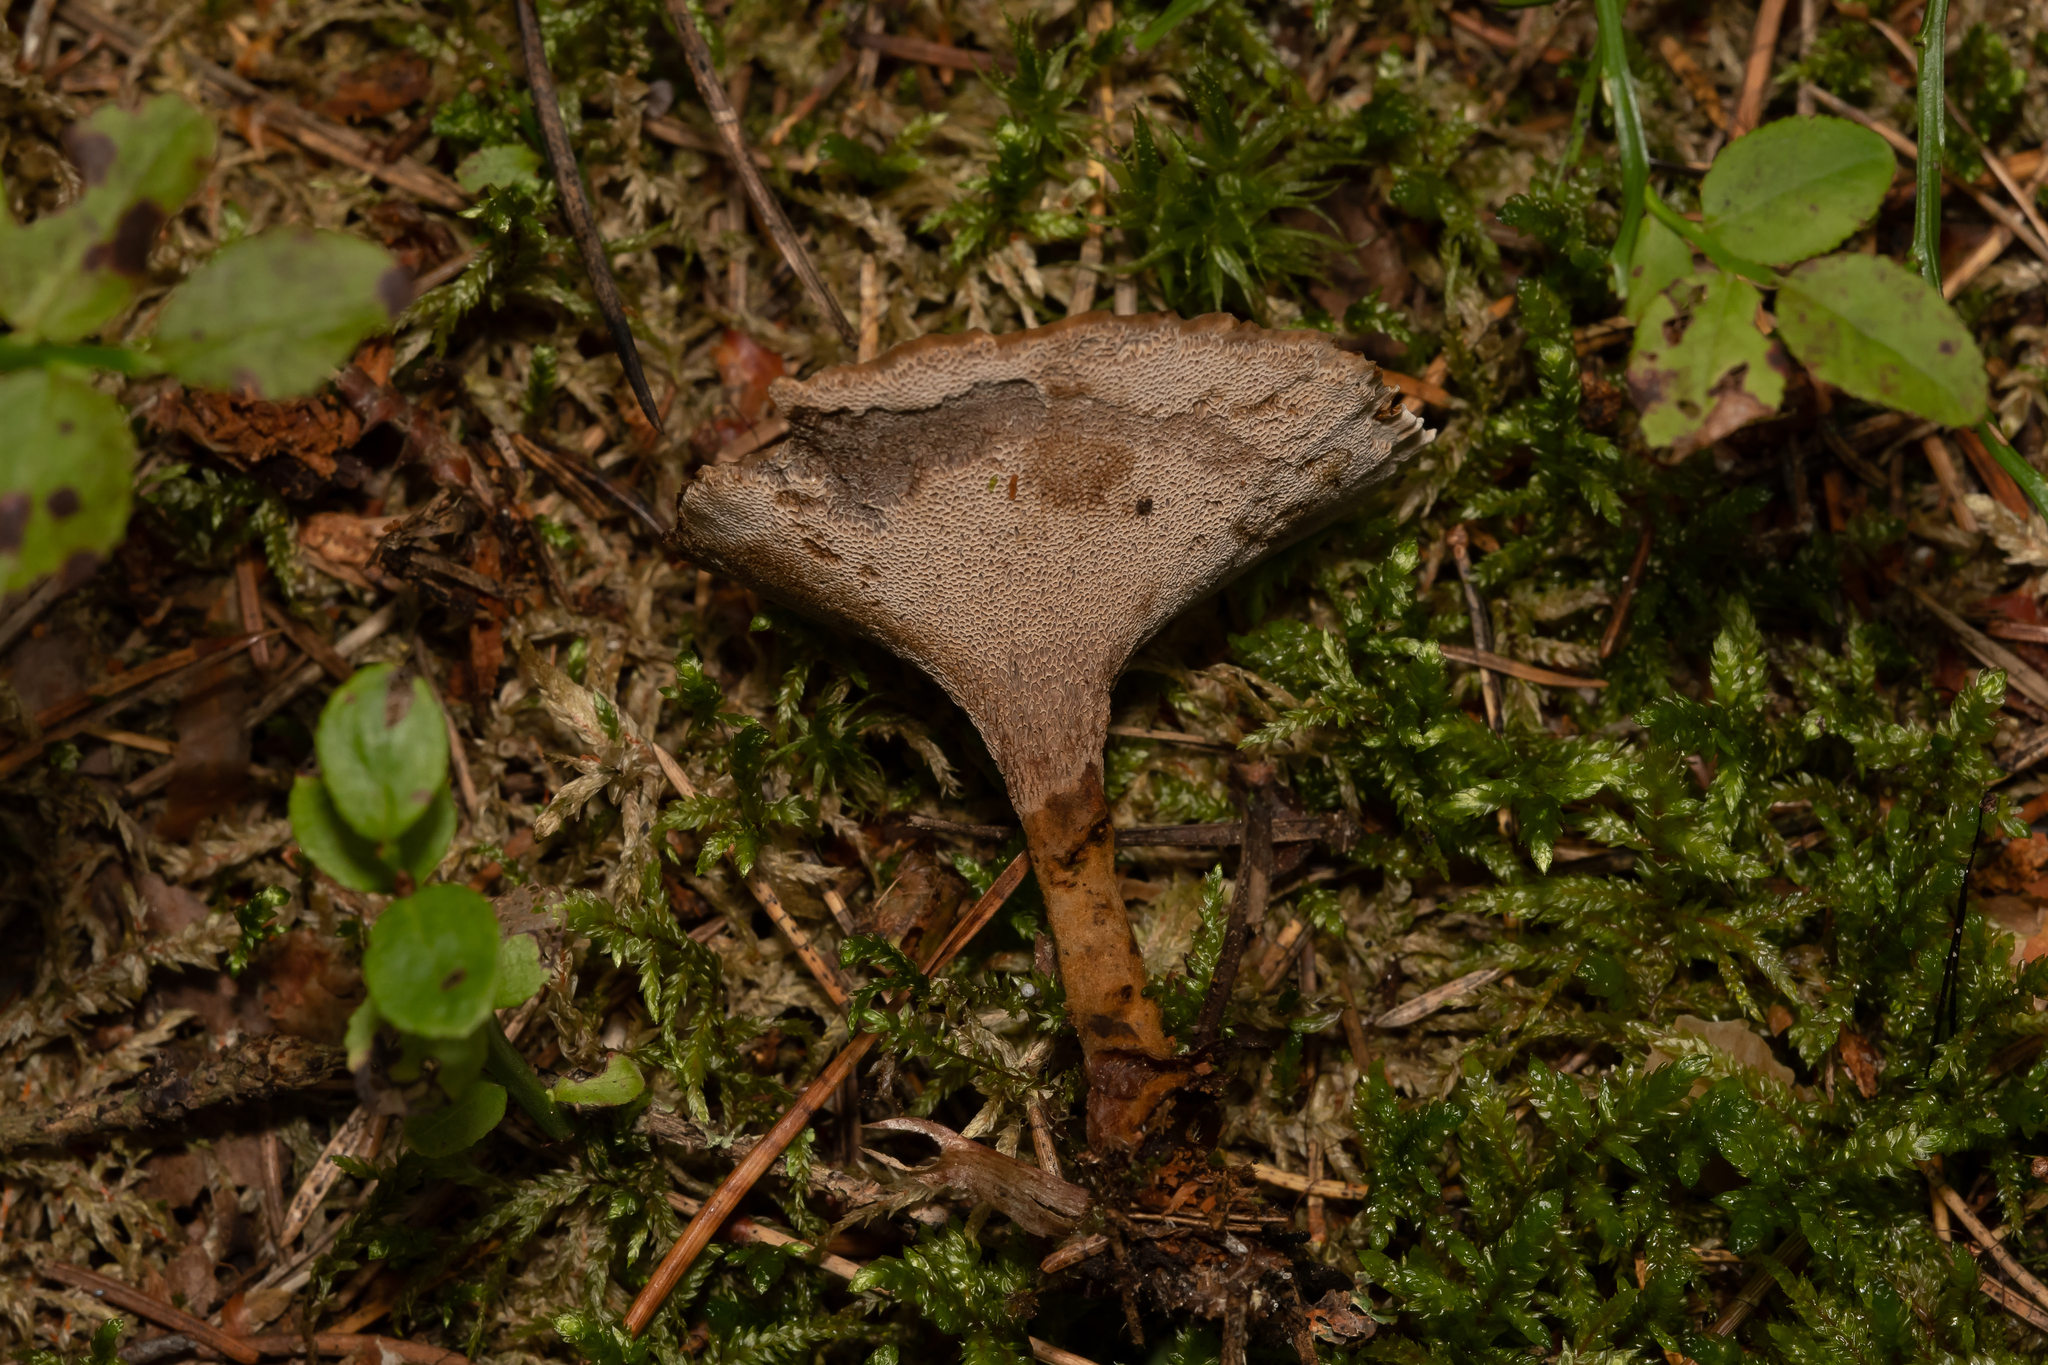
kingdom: Fungi
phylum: Basidiomycota
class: Agaricomycetes
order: Hymenochaetales
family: Hymenochaetaceae
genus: Coltricia
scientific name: Coltricia perennis
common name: Tiger's eye
